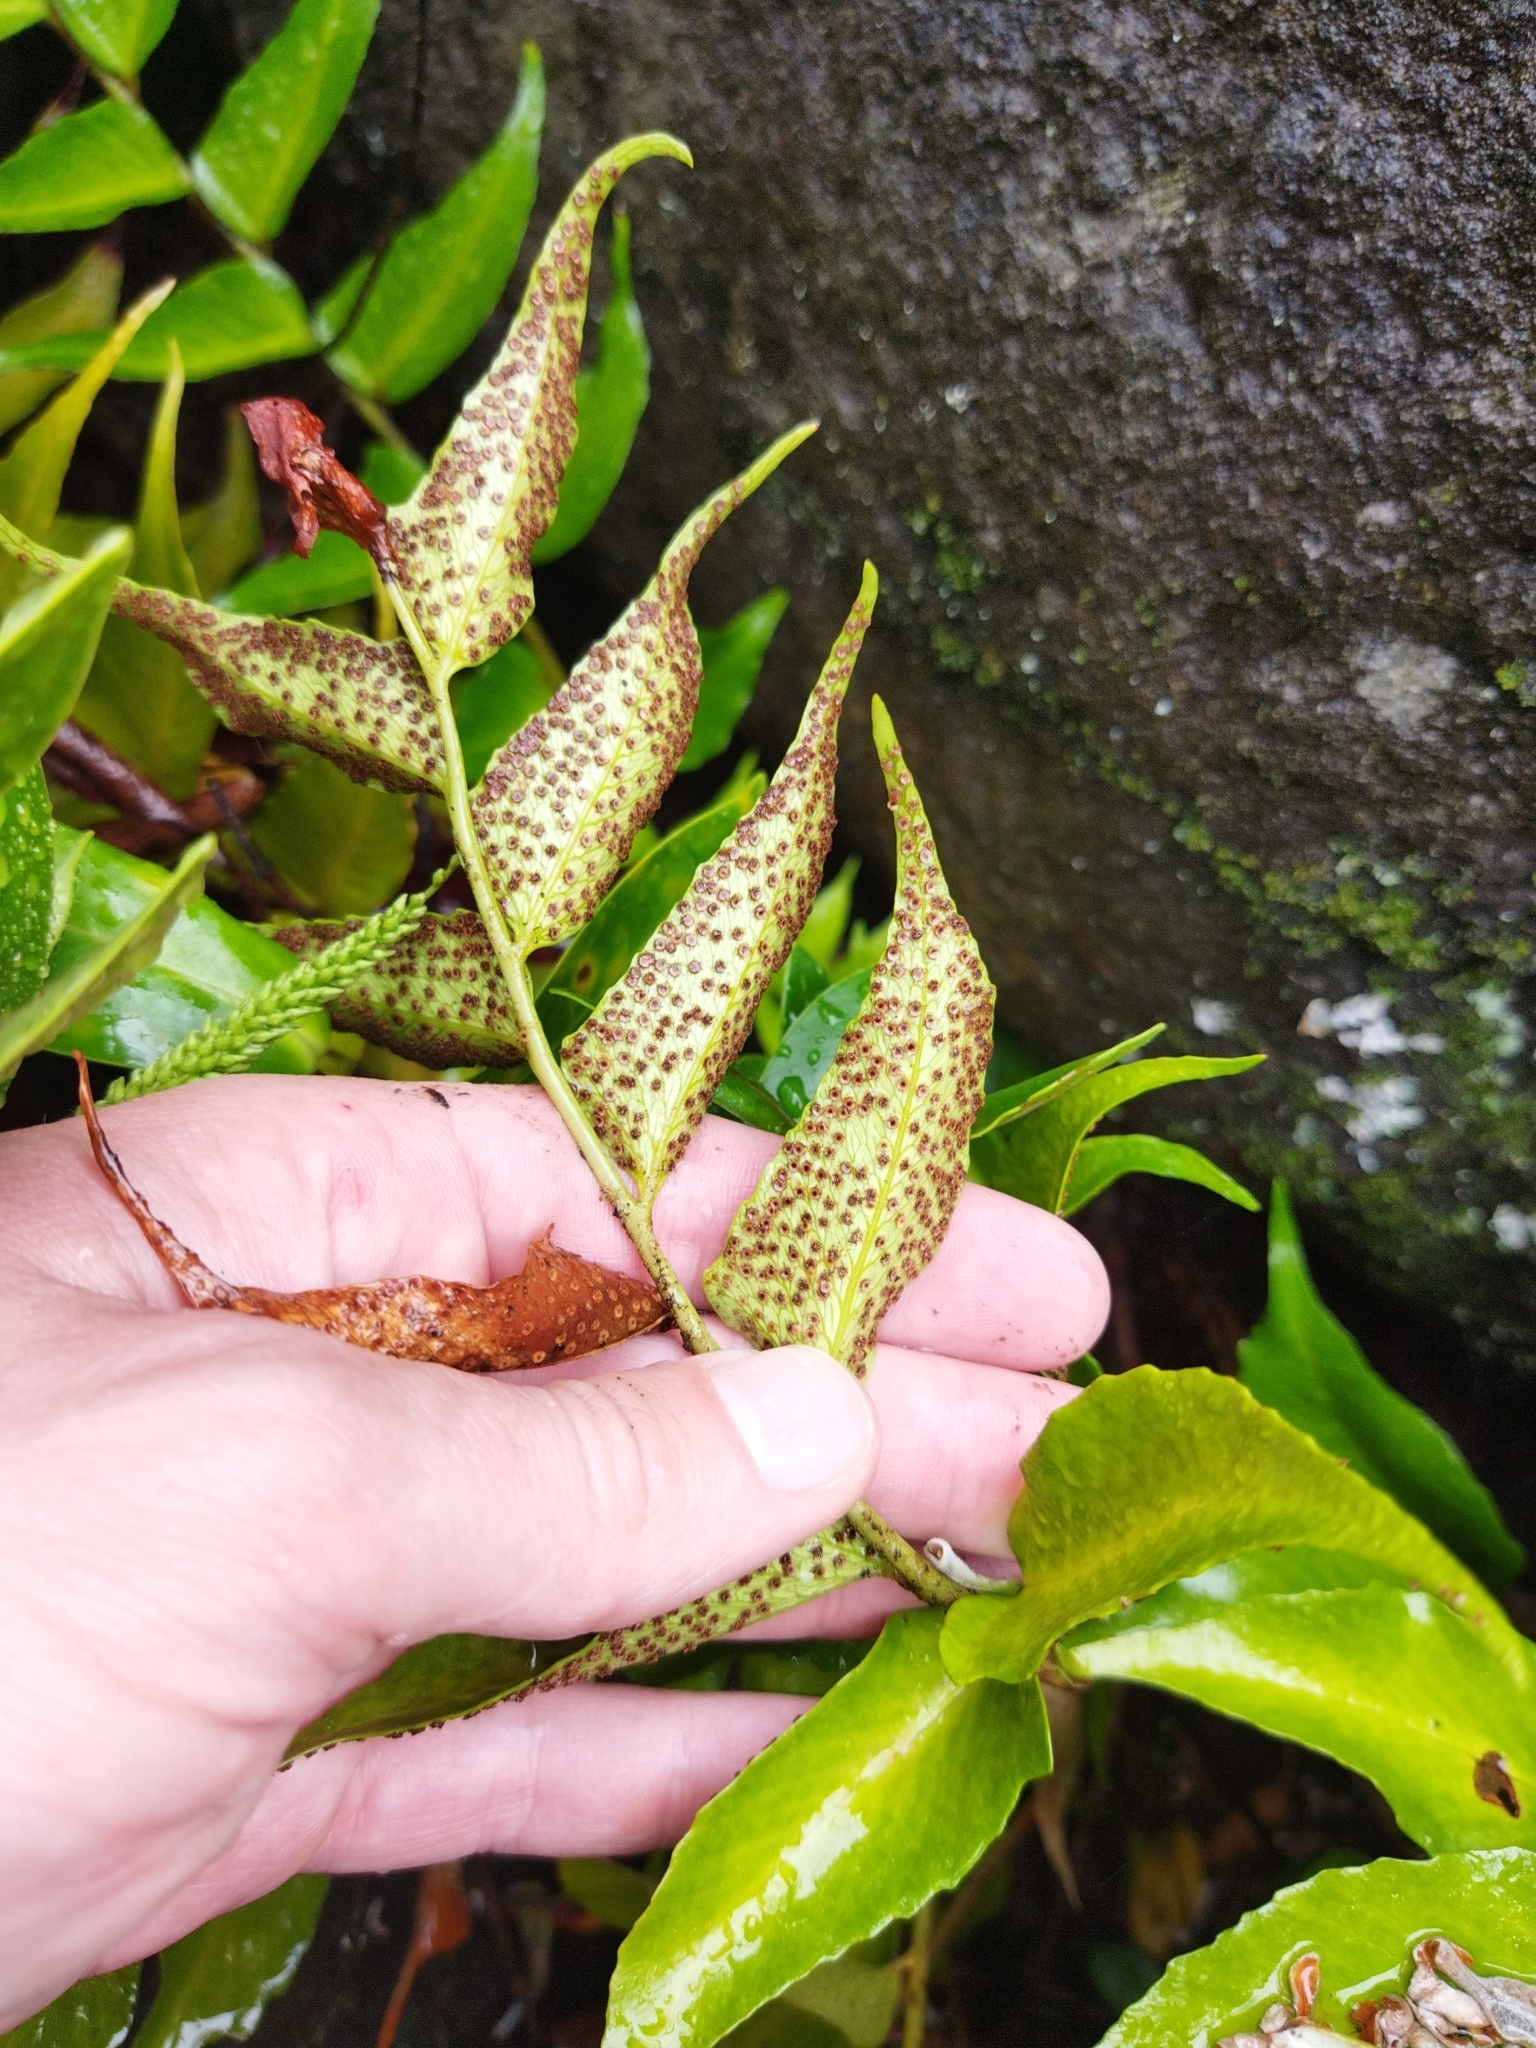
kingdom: Plantae
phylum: Tracheophyta
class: Polypodiopsida
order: Polypodiales
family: Dryopteridaceae
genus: Cyrtomium
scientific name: Cyrtomium falcatum
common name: House holly-fern
